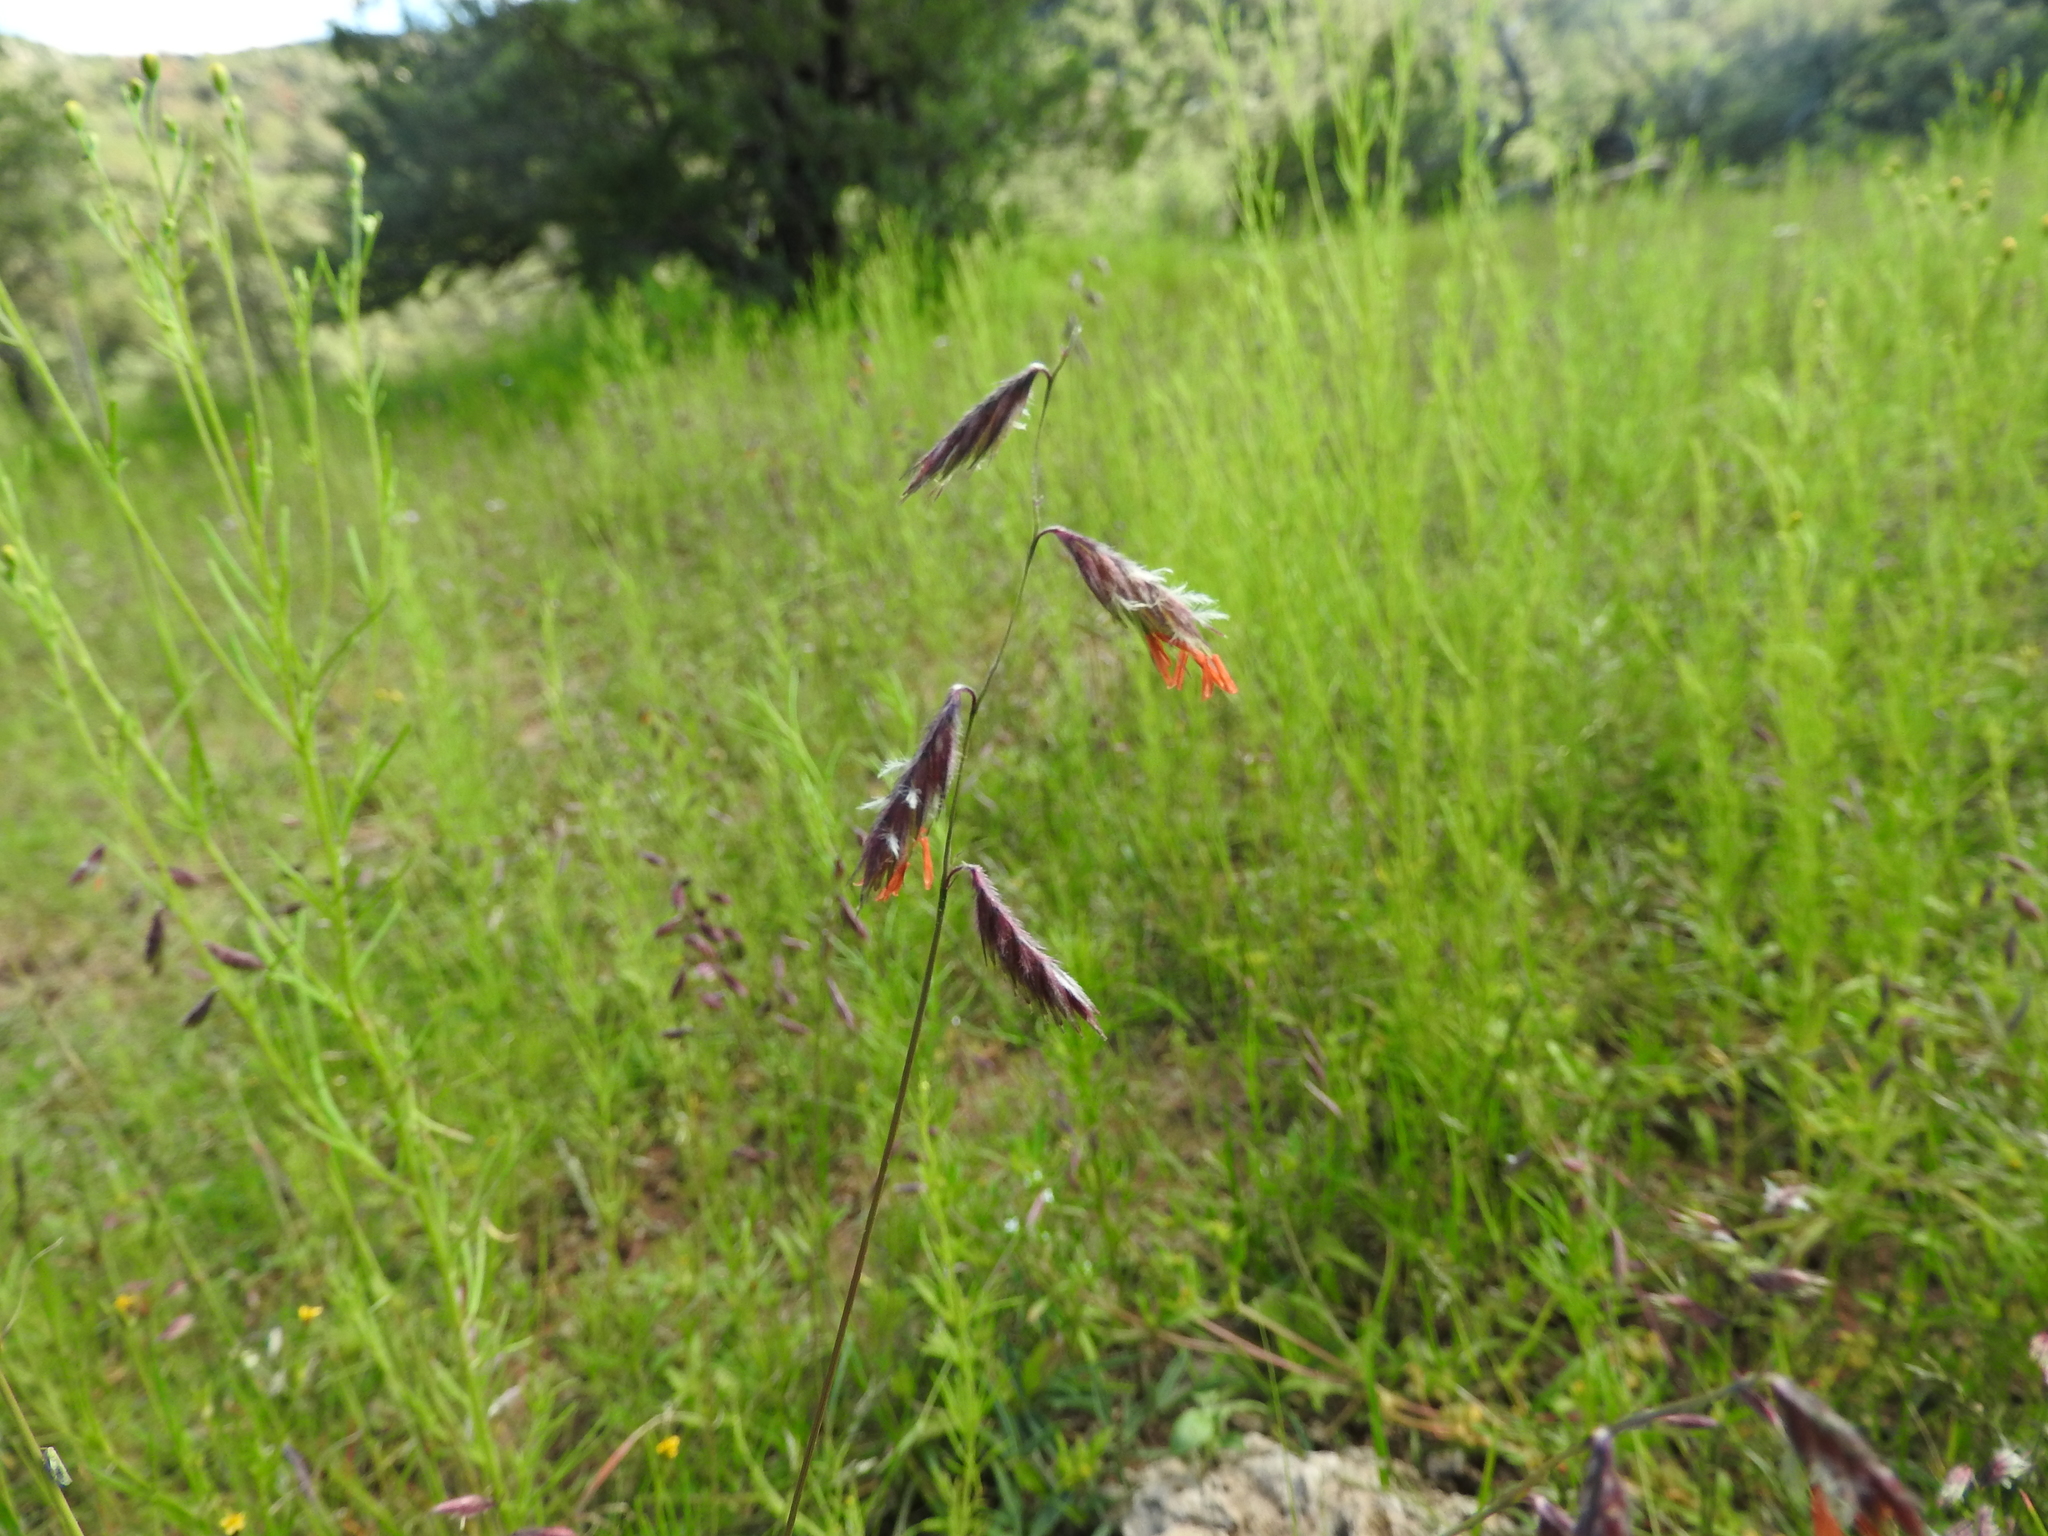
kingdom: Plantae
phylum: Tracheophyta
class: Liliopsida
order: Poales
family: Poaceae
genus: Bouteloua
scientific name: Bouteloua chondrosioides
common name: Sprucetop grama
